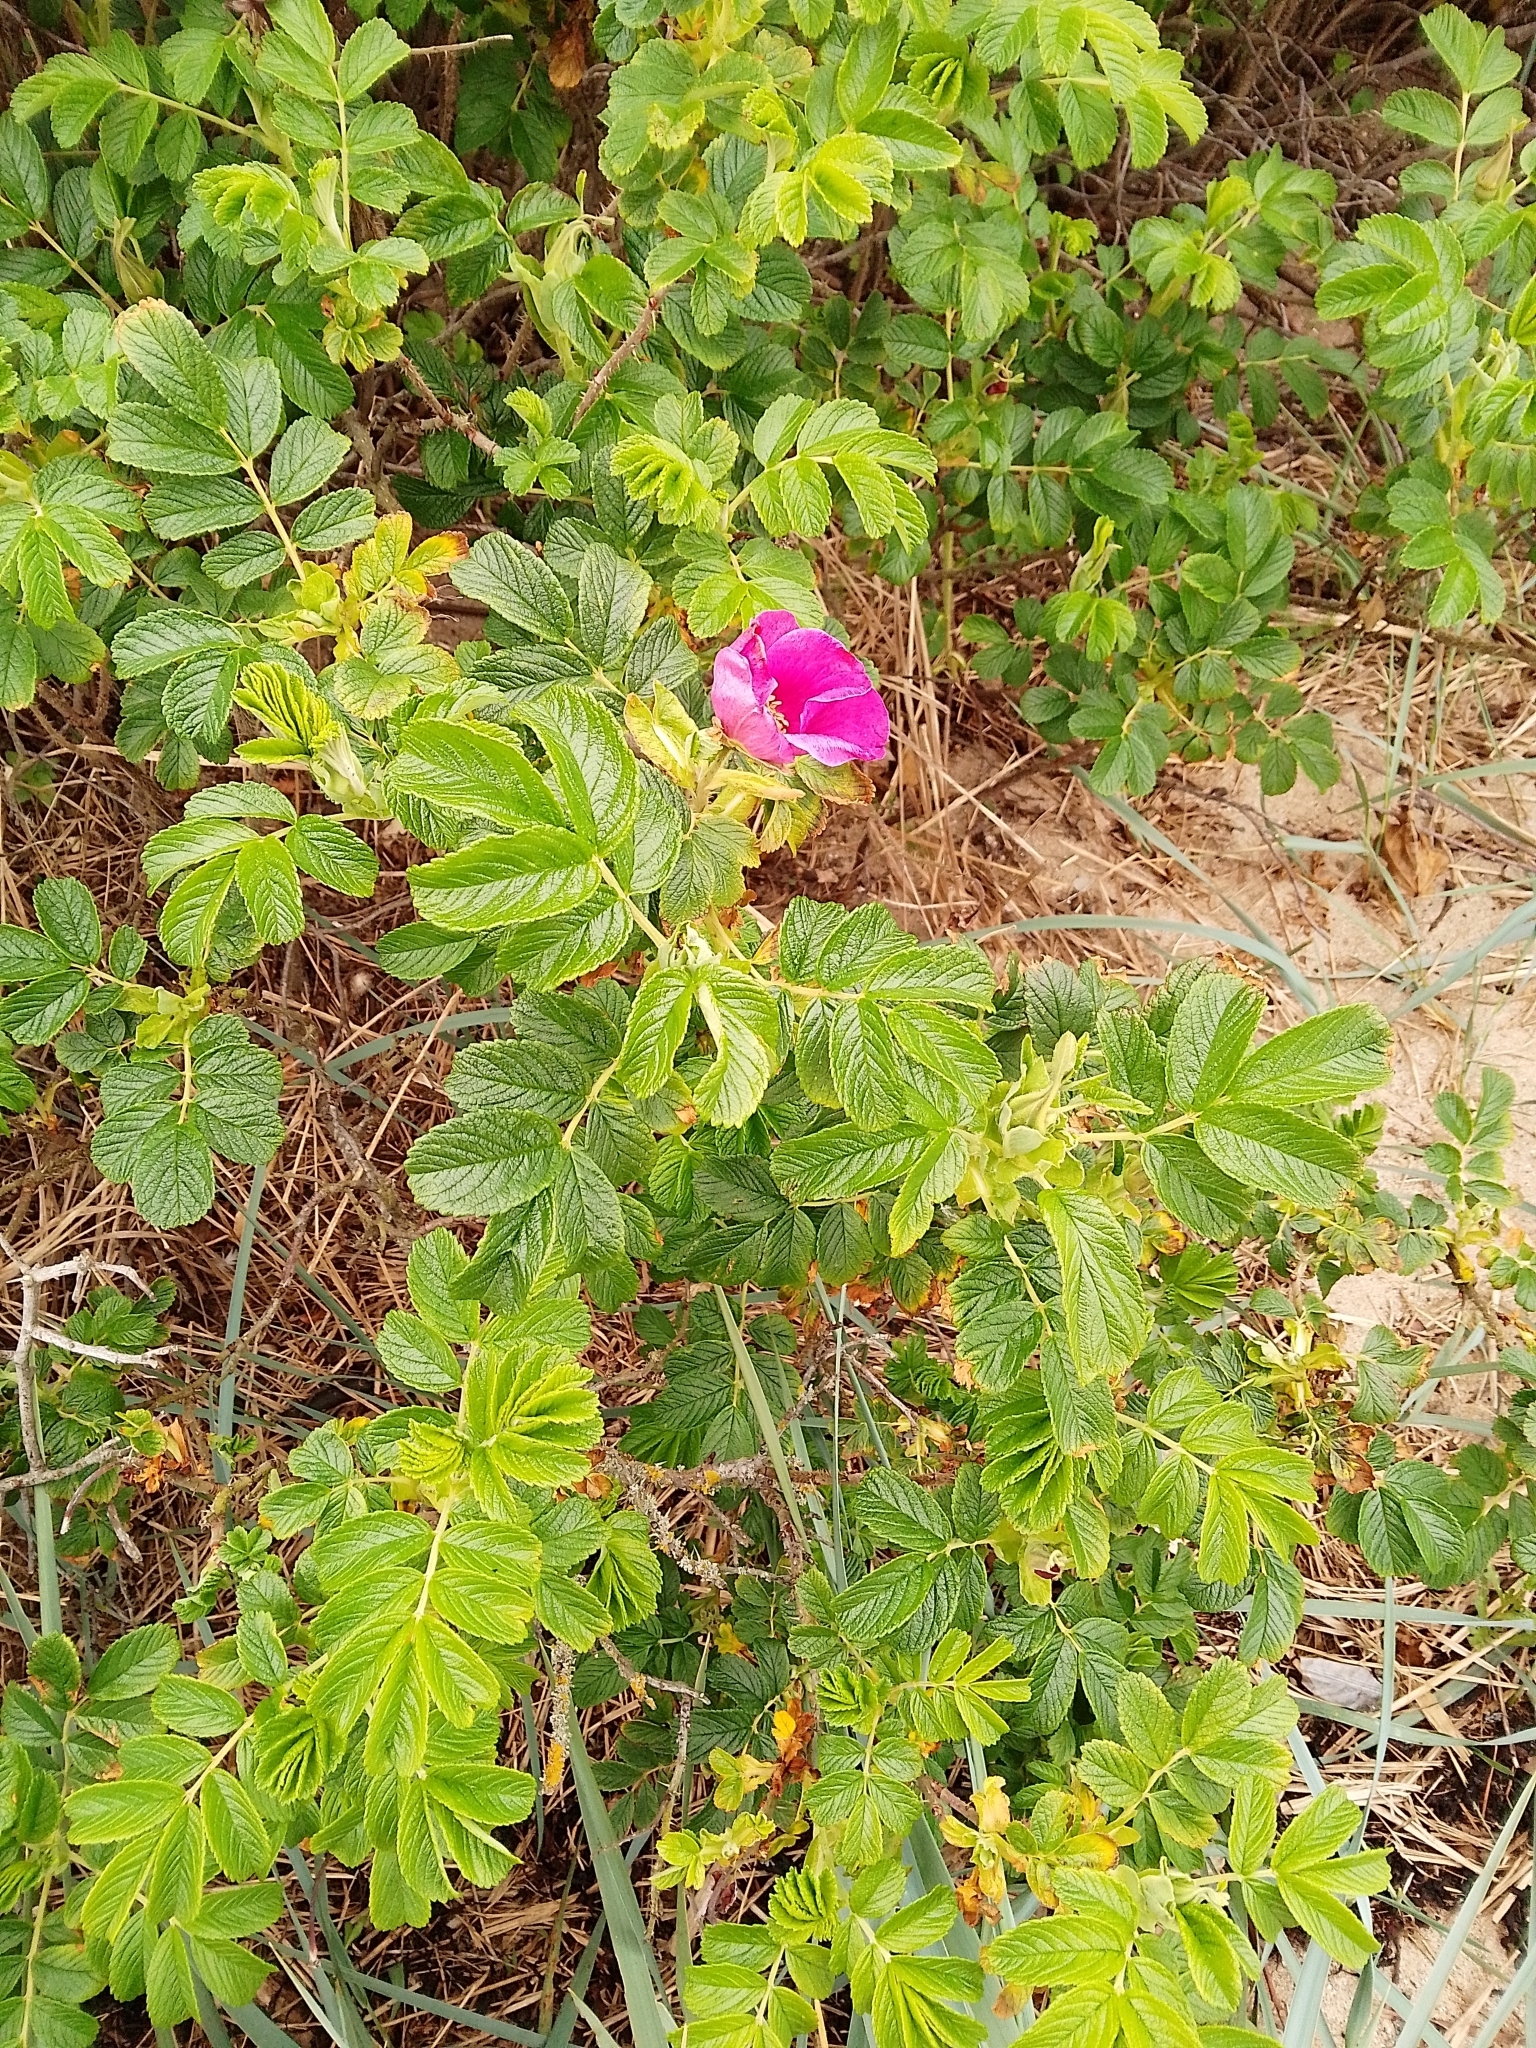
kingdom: Plantae
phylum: Tracheophyta
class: Magnoliopsida
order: Rosales
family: Rosaceae
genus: Rosa
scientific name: Rosa rugosa
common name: Japanese rose
